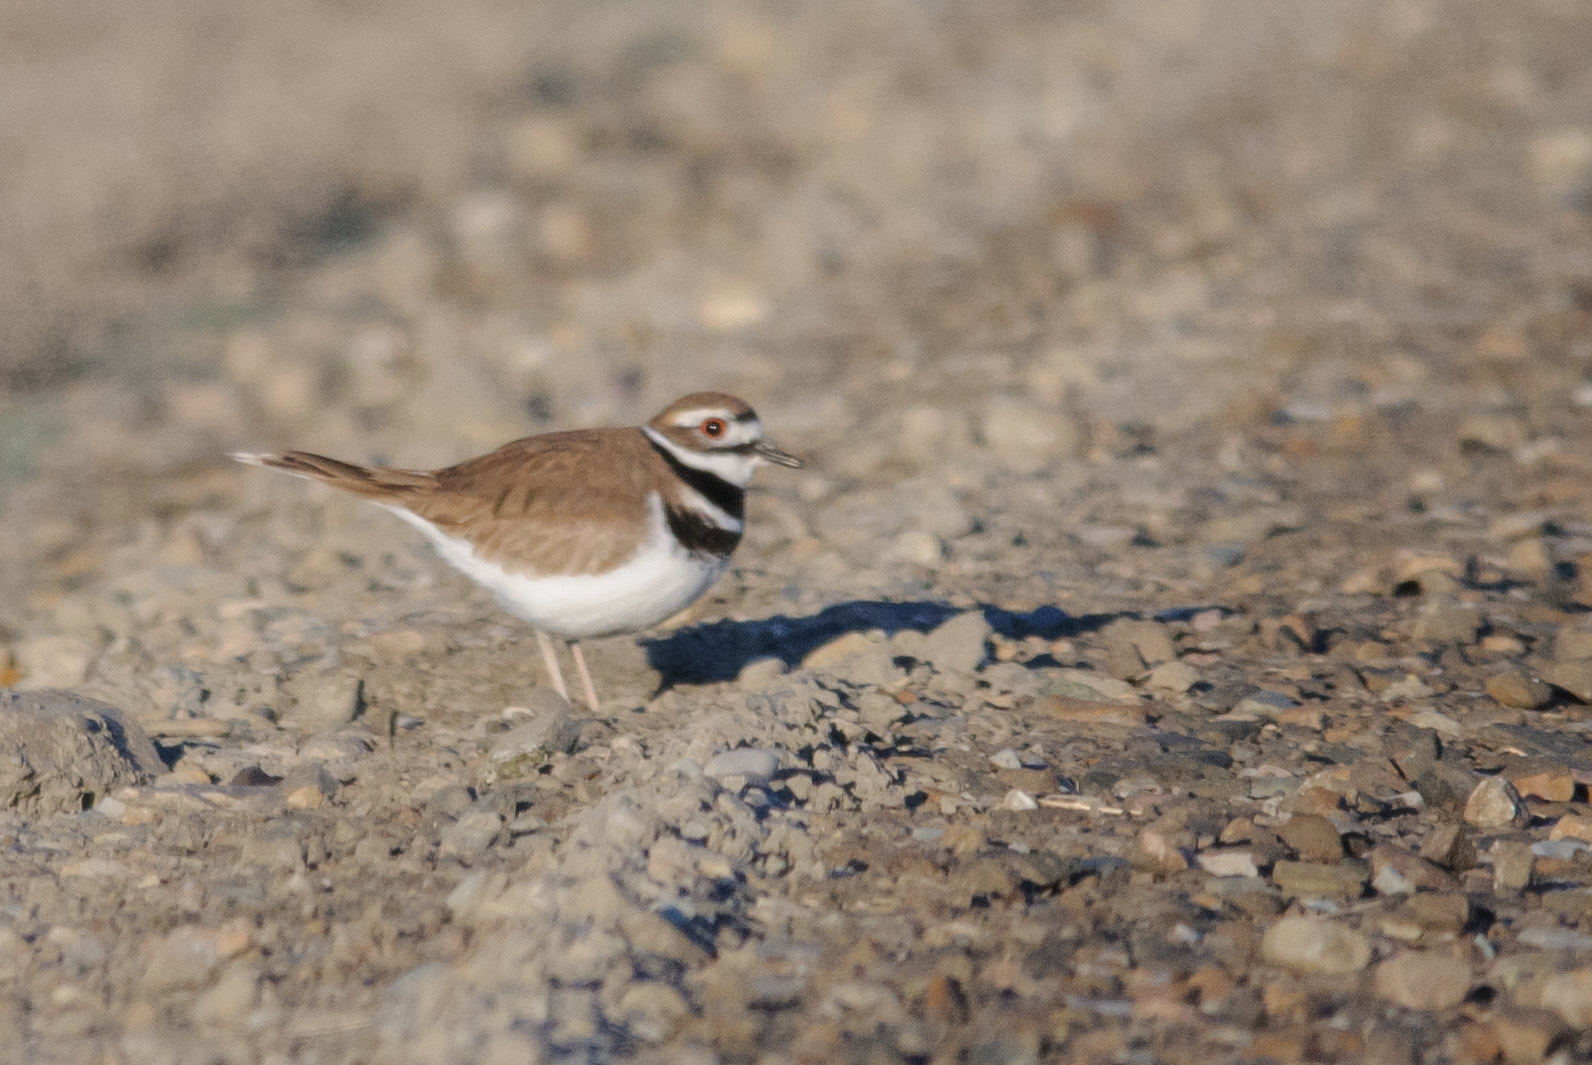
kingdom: Animalia
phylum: Chordata
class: Aves
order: Charadriiformes
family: Charadriidae
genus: Charadrius
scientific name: Charadrius vociferus
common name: Killdeer
